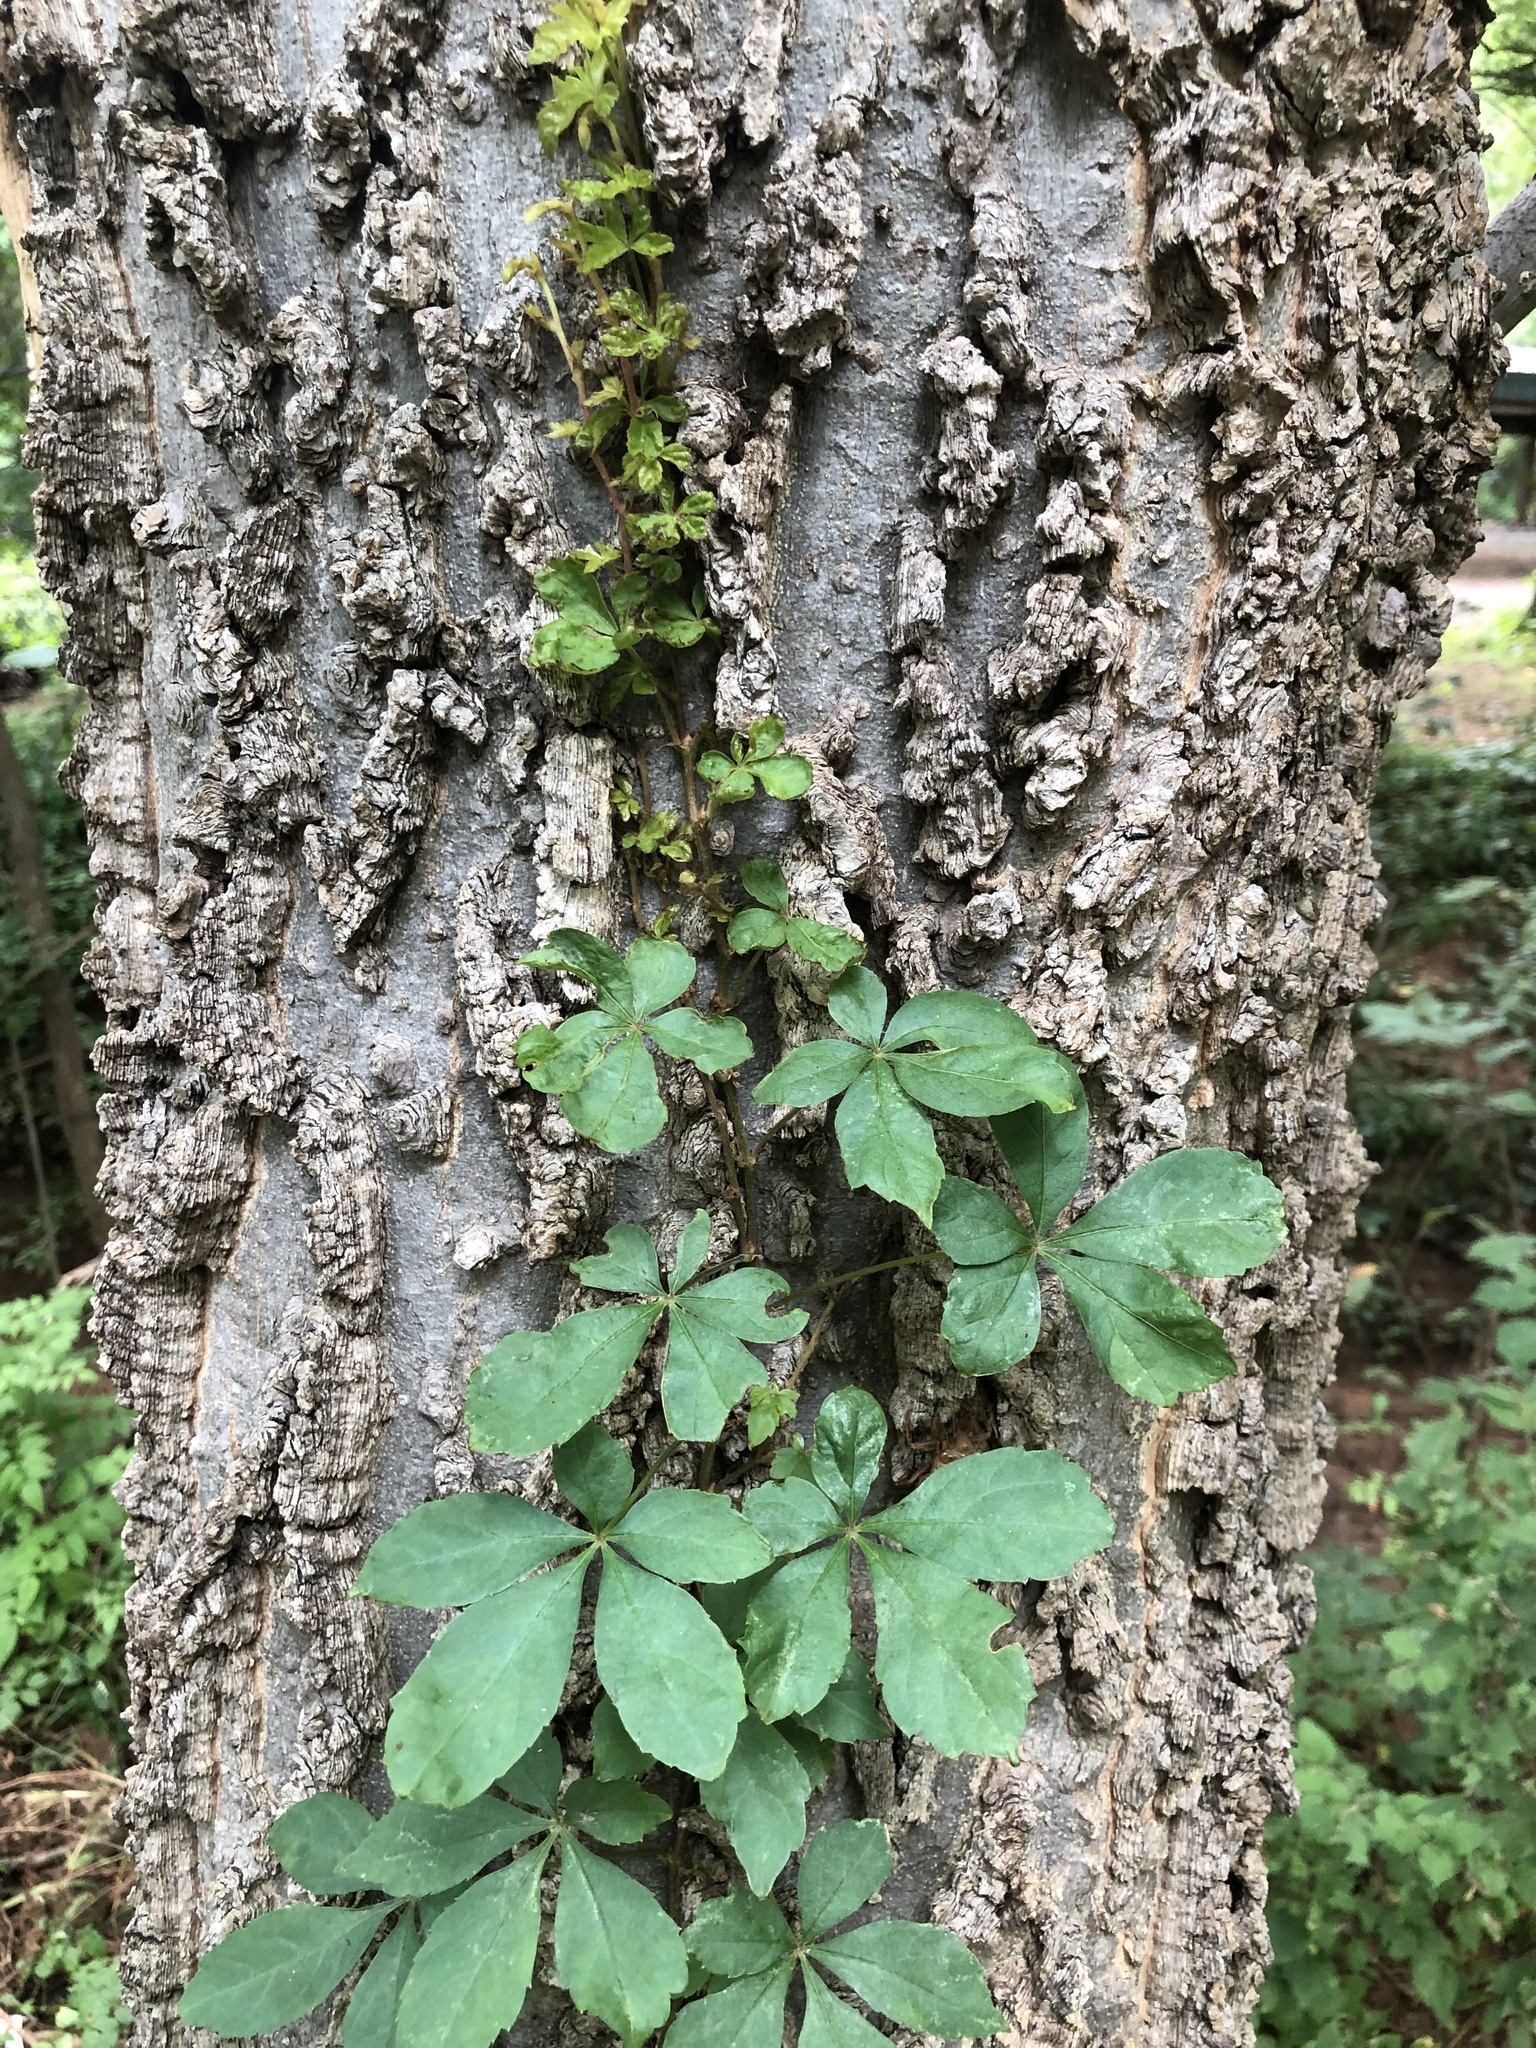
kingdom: Plantae
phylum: Tracheophyta
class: Magnoliopsida
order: Vitales
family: Vitaceae
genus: Parthenocissus
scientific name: Parthenocissus quinquefolia
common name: Virginia-creeper
